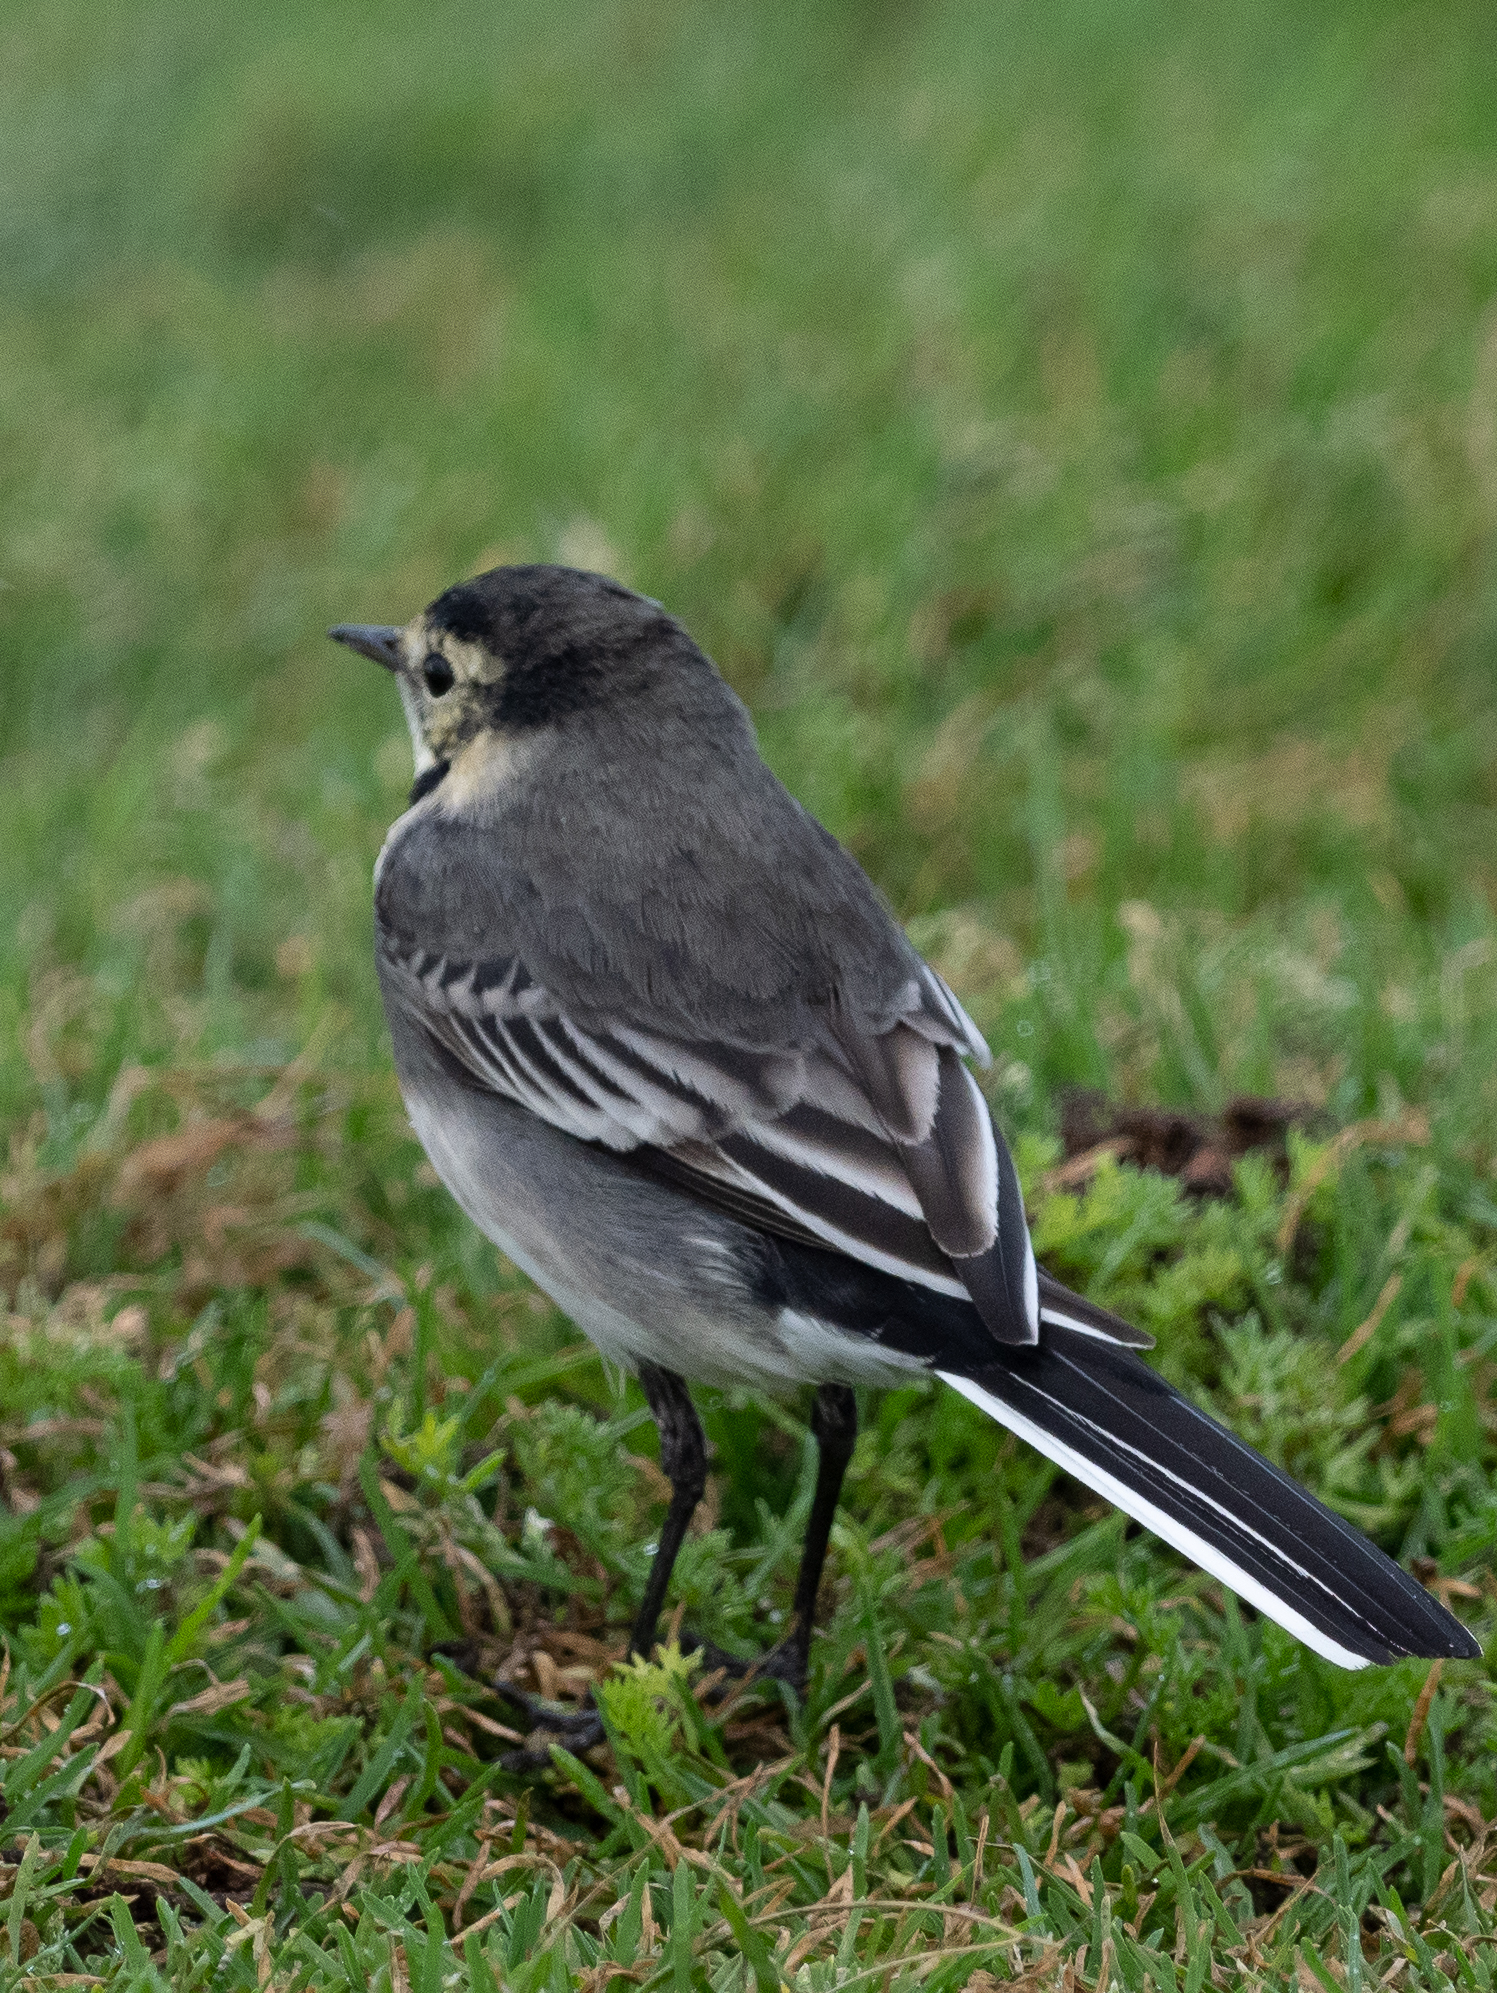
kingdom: Animalia
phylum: Chordata
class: Aves
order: Passeriformes
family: Motacillidae
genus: Motacilla
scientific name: Motacilla alba
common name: White wagtail
